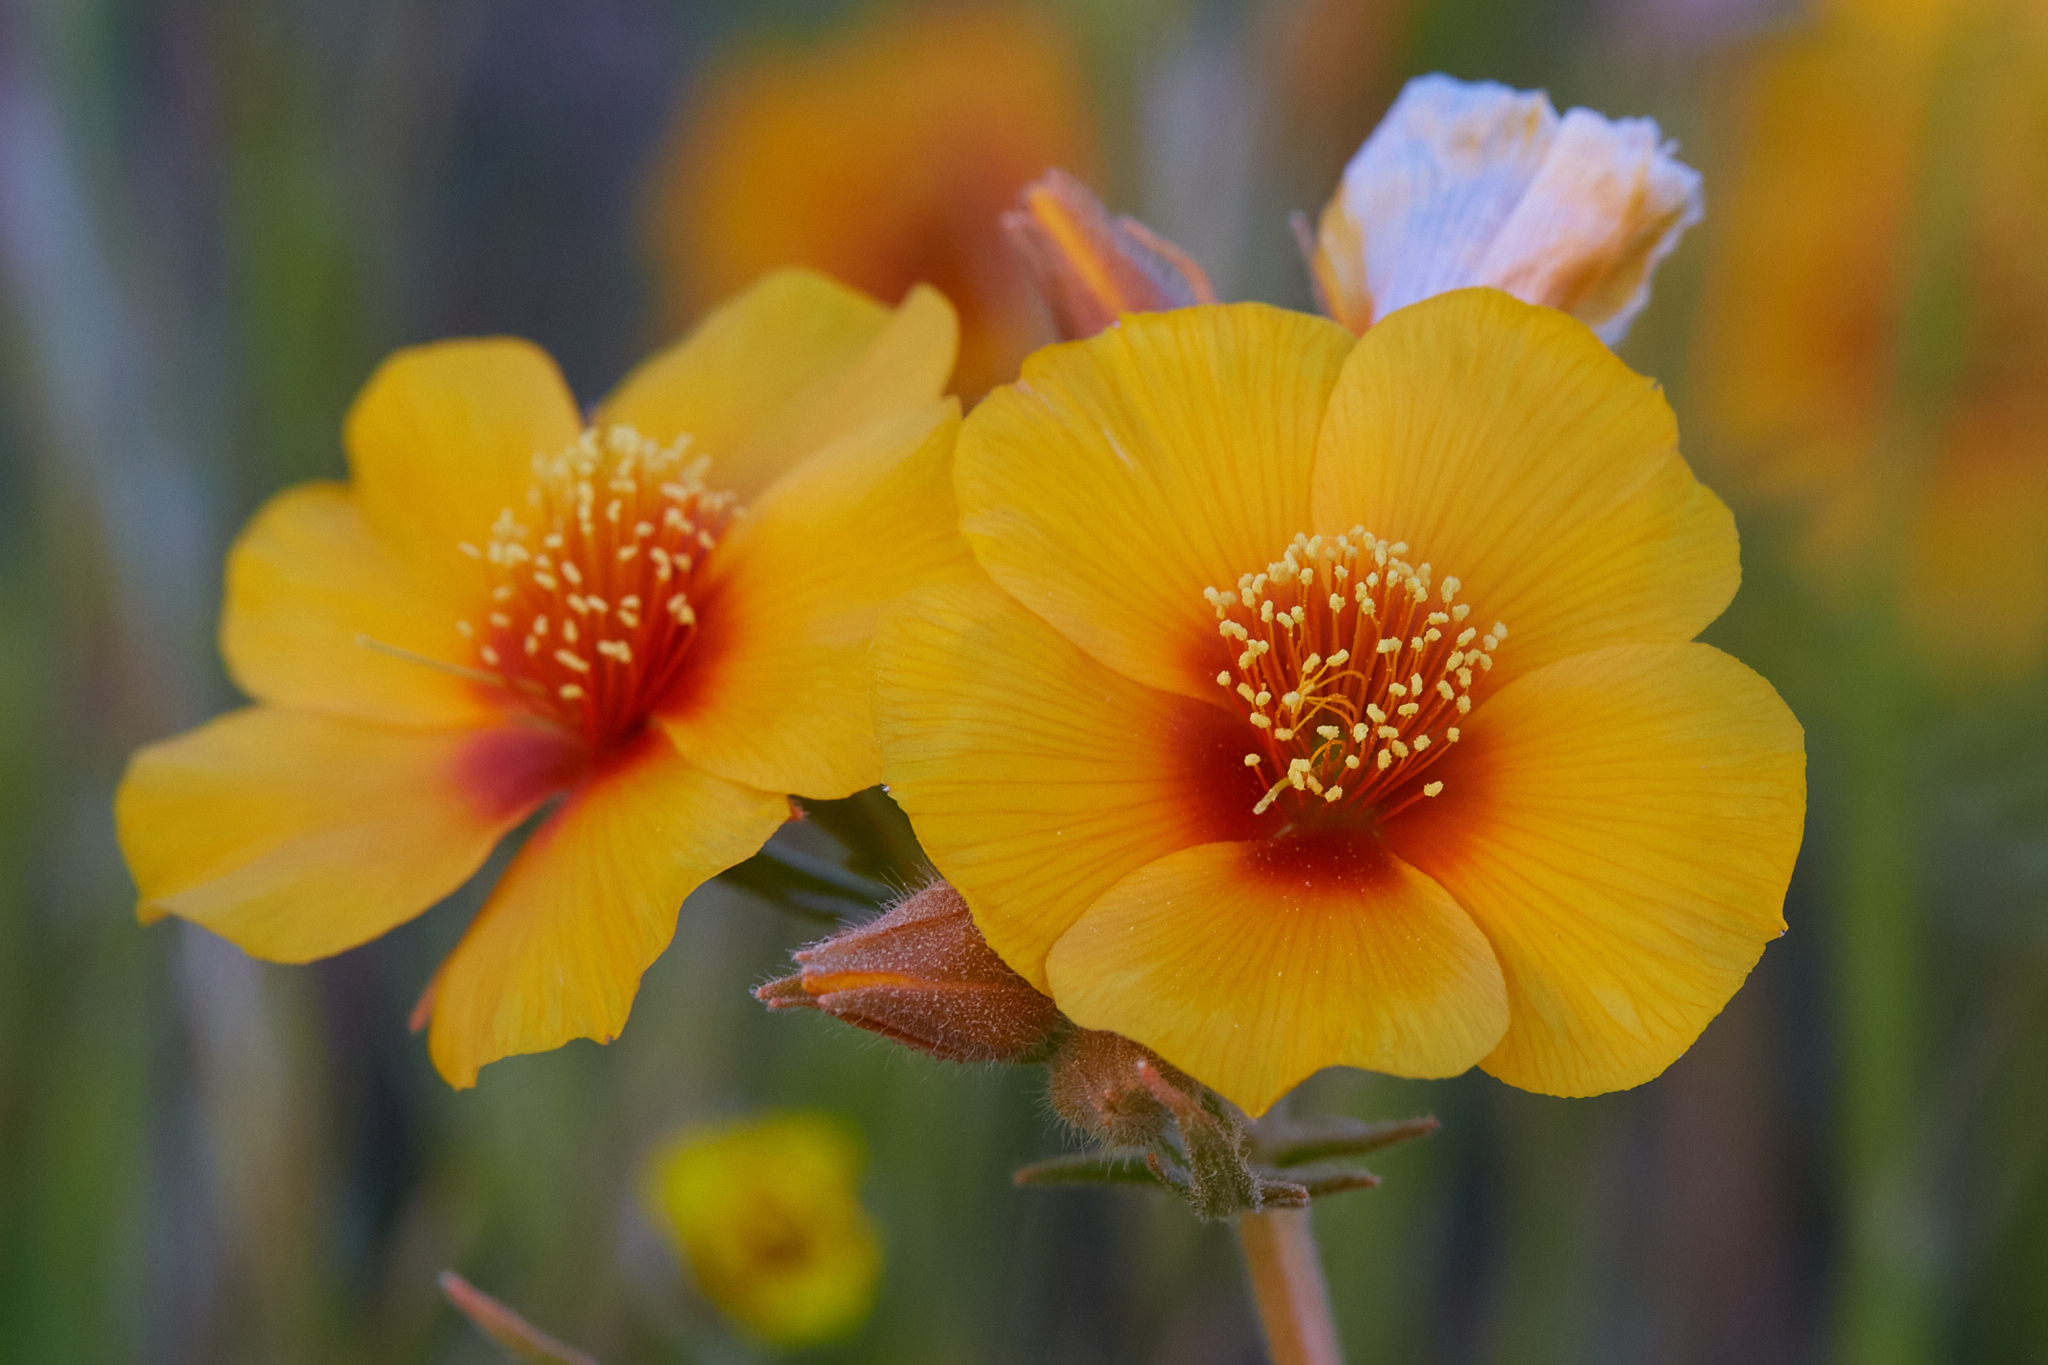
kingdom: Plantae
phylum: Tracheophyta
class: Magnoliopsida
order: Cornales
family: Loasaceae
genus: Mentzelia
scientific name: Mentzelia pectinata
